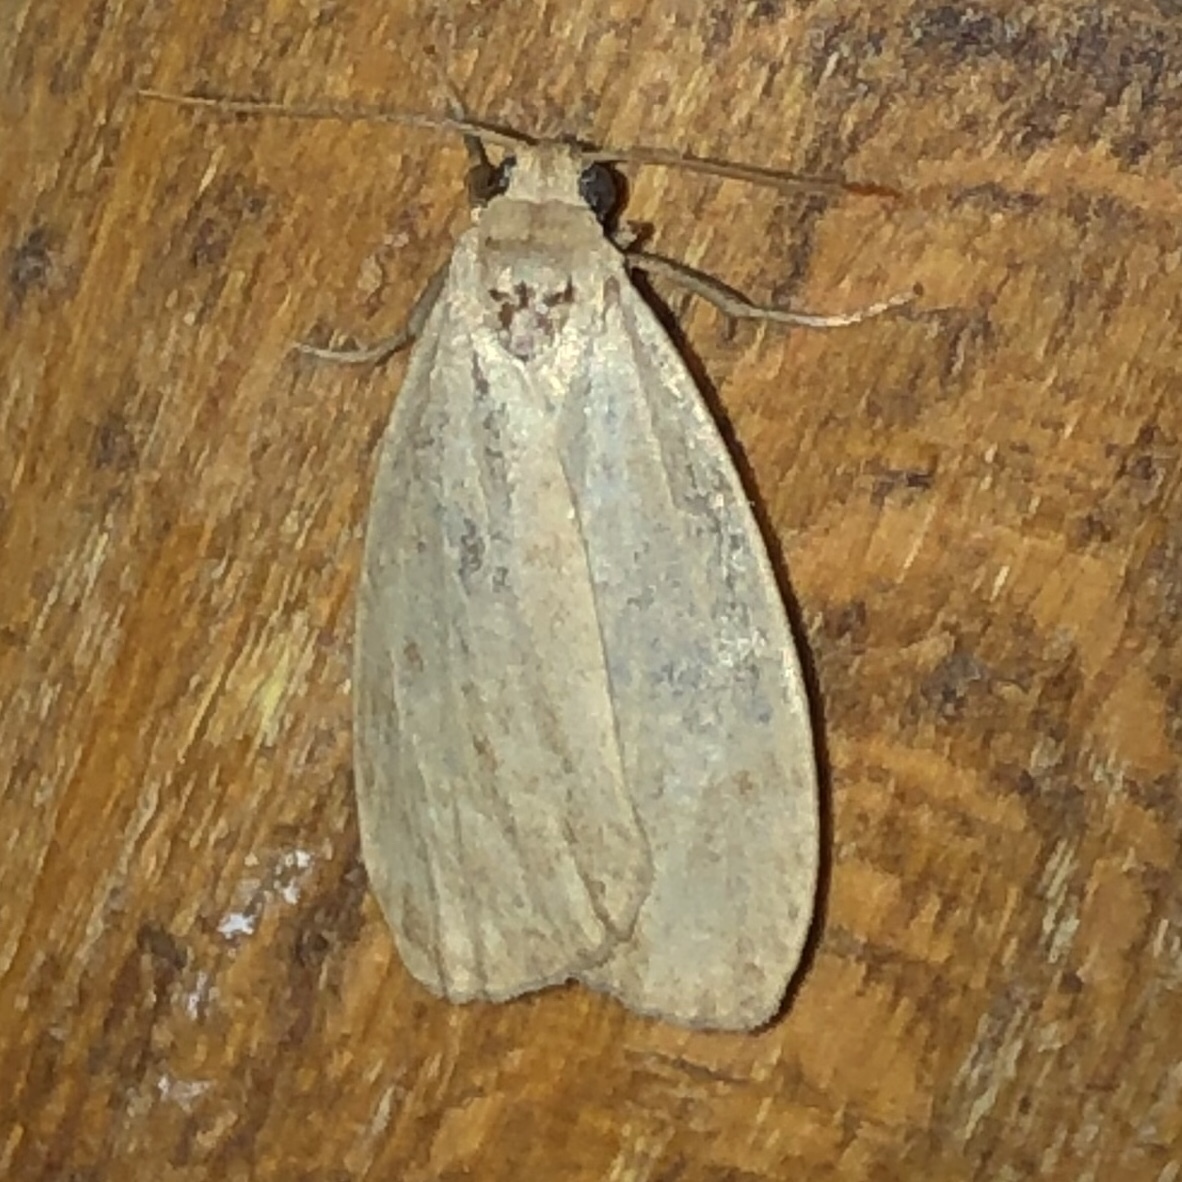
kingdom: Animalia
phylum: Arthropoda
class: Insecta
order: Lepidoptera
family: Erebidae
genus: Crambidia
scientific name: Crambidia pallida
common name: Pale lichen moth
